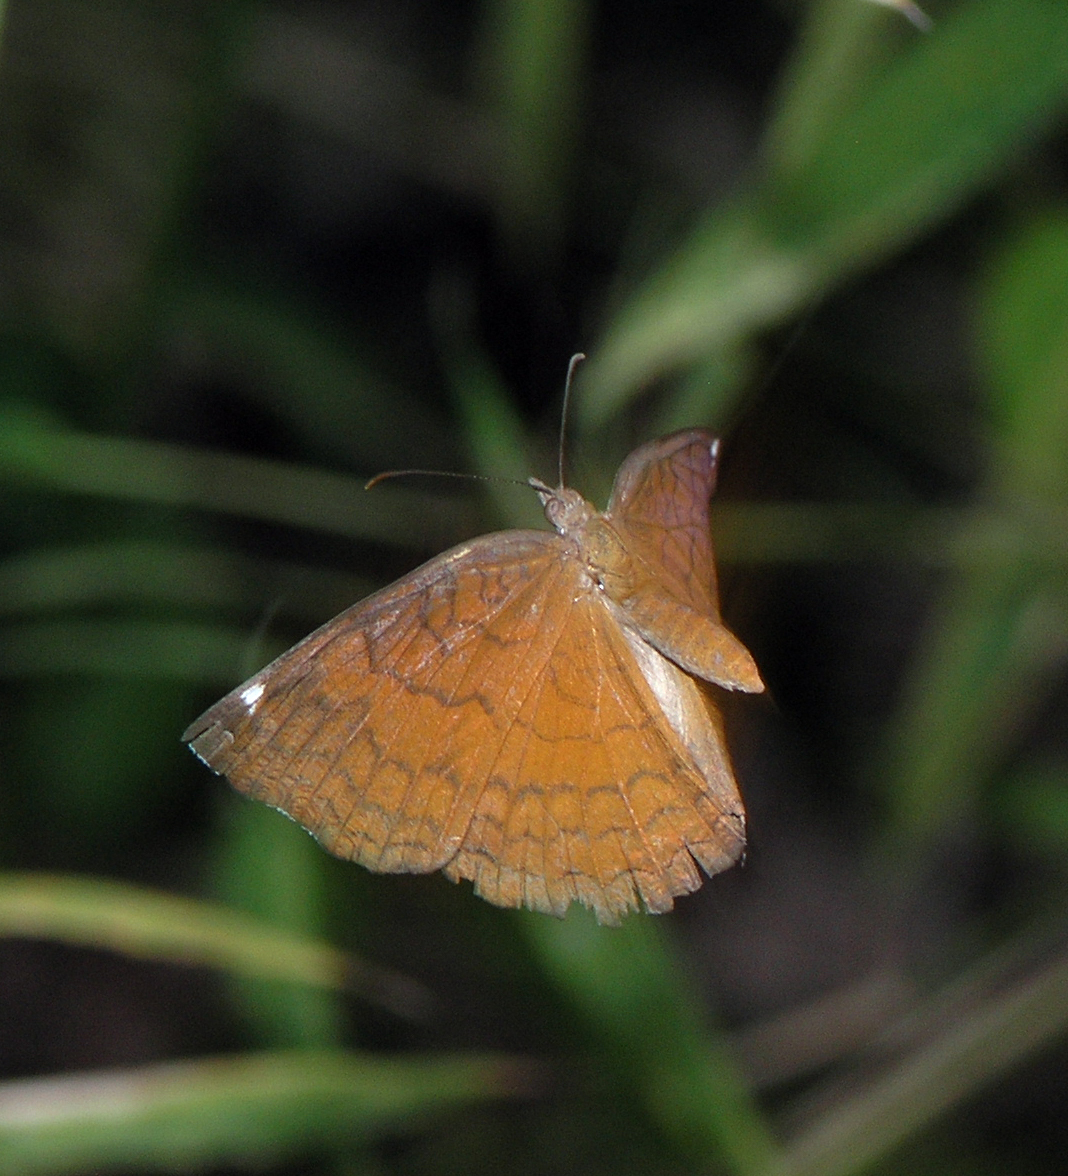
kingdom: Animalia
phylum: Arthropoda
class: Insecta
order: Lepidoptera
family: Nymphalidae
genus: Ariadne
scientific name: Ariadne ariadne
